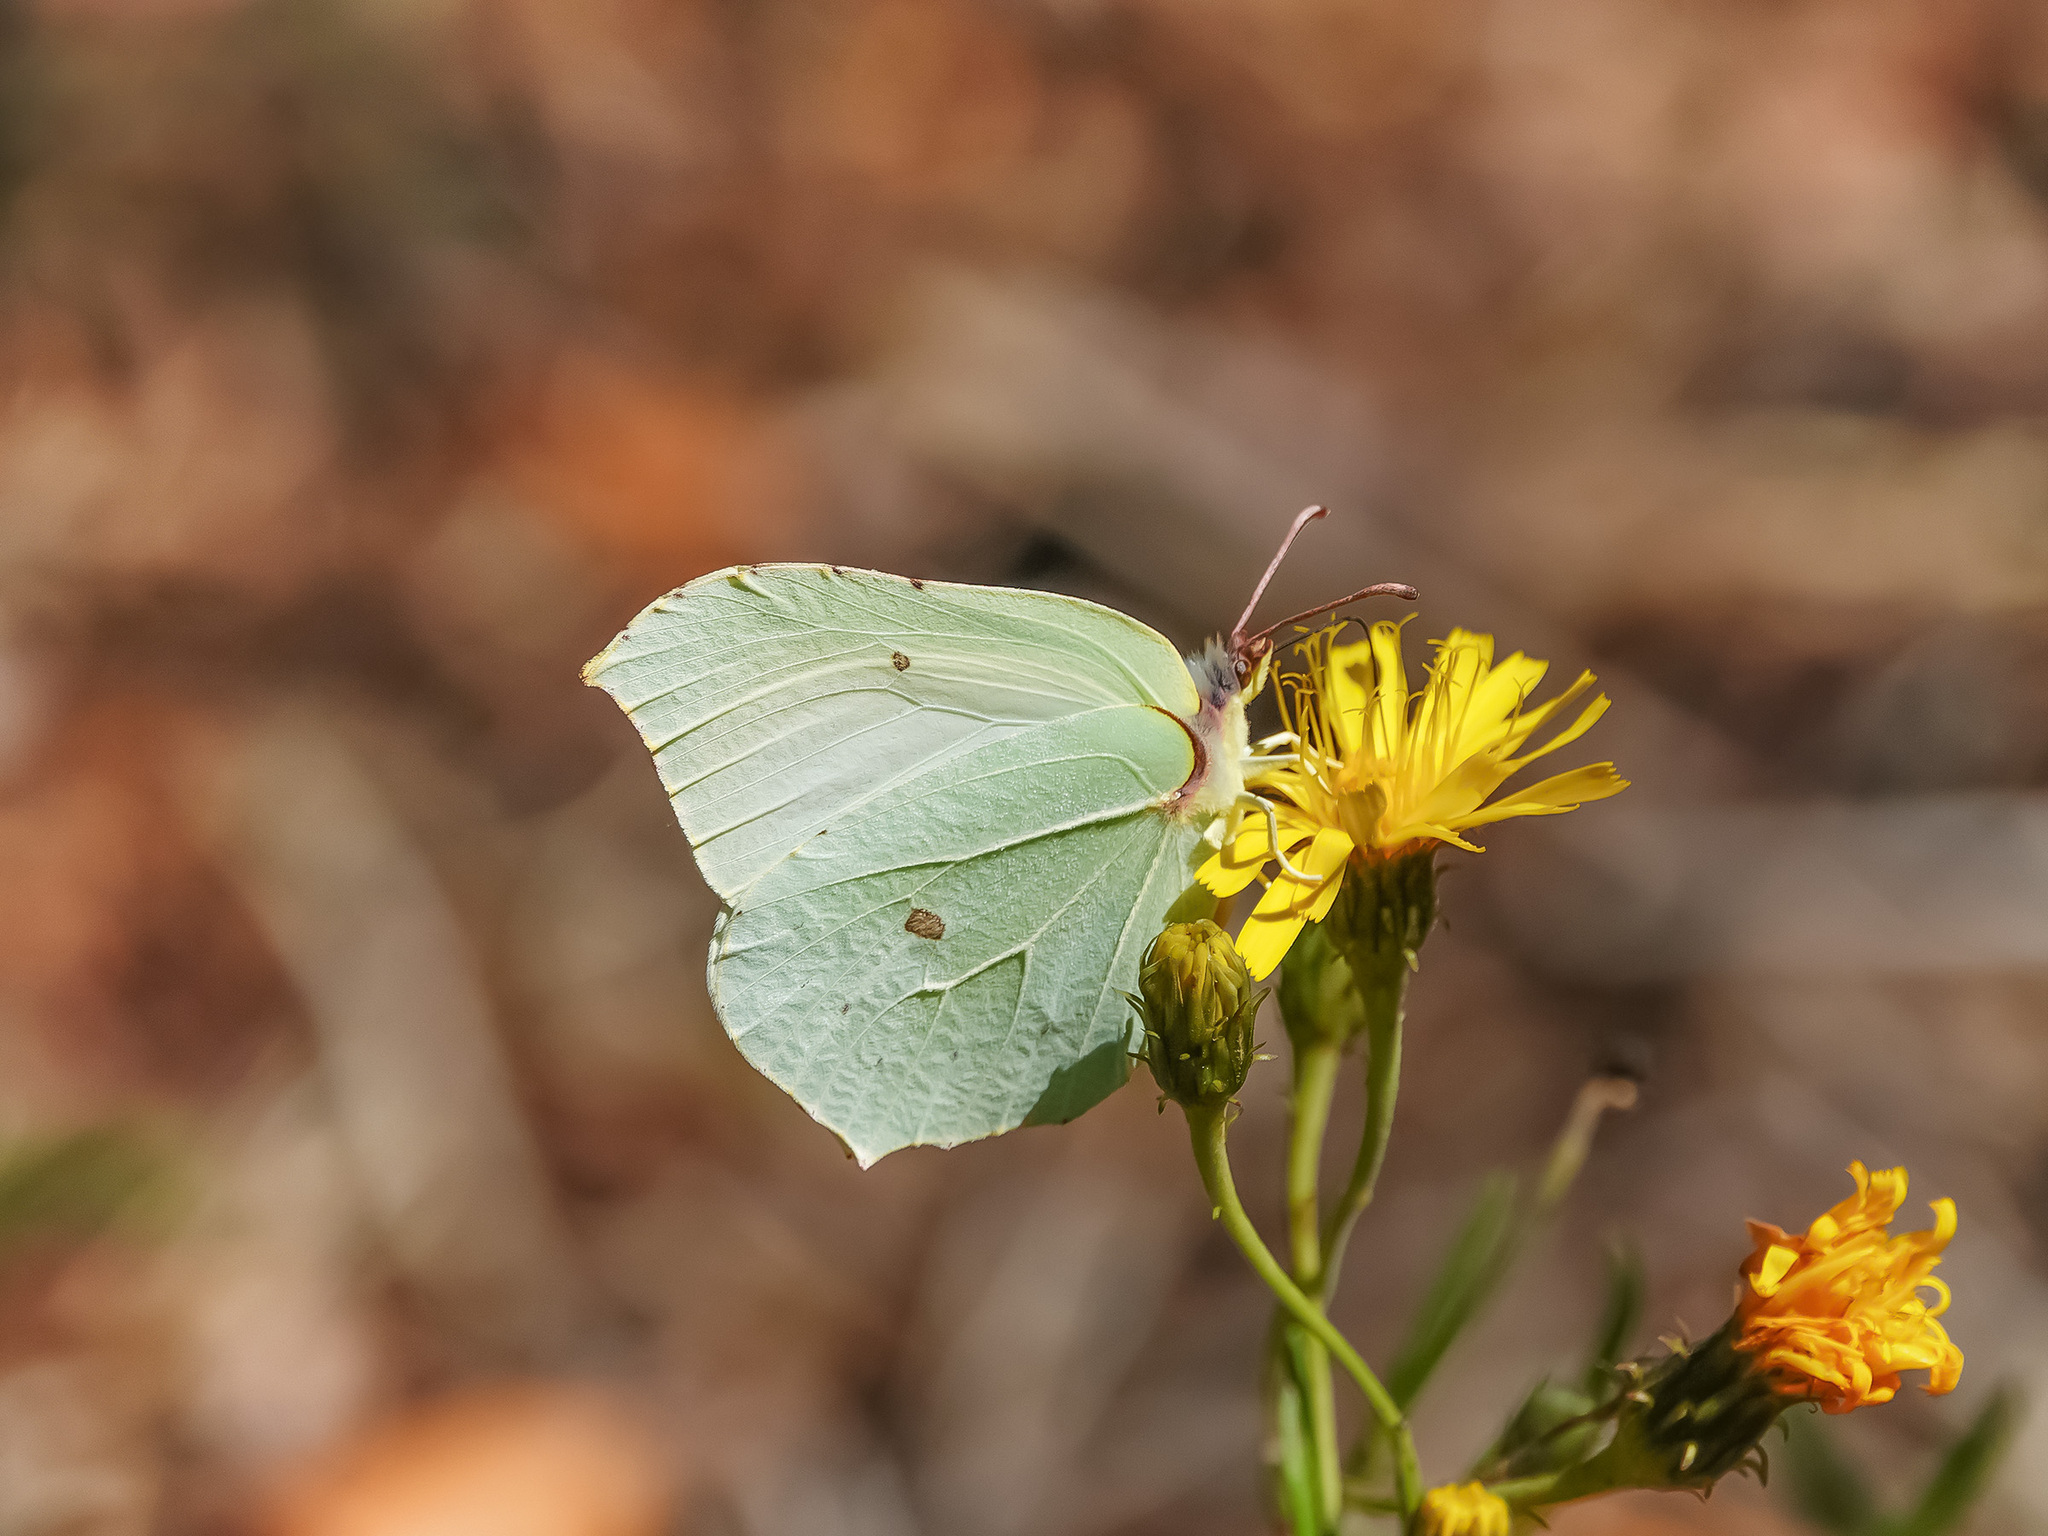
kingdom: Animalia
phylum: Arthropoda
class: Insecta
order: Lepidoptera
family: Pieridae
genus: Gonepteryx
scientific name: Gonepteryx rhamni
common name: Brimstone
